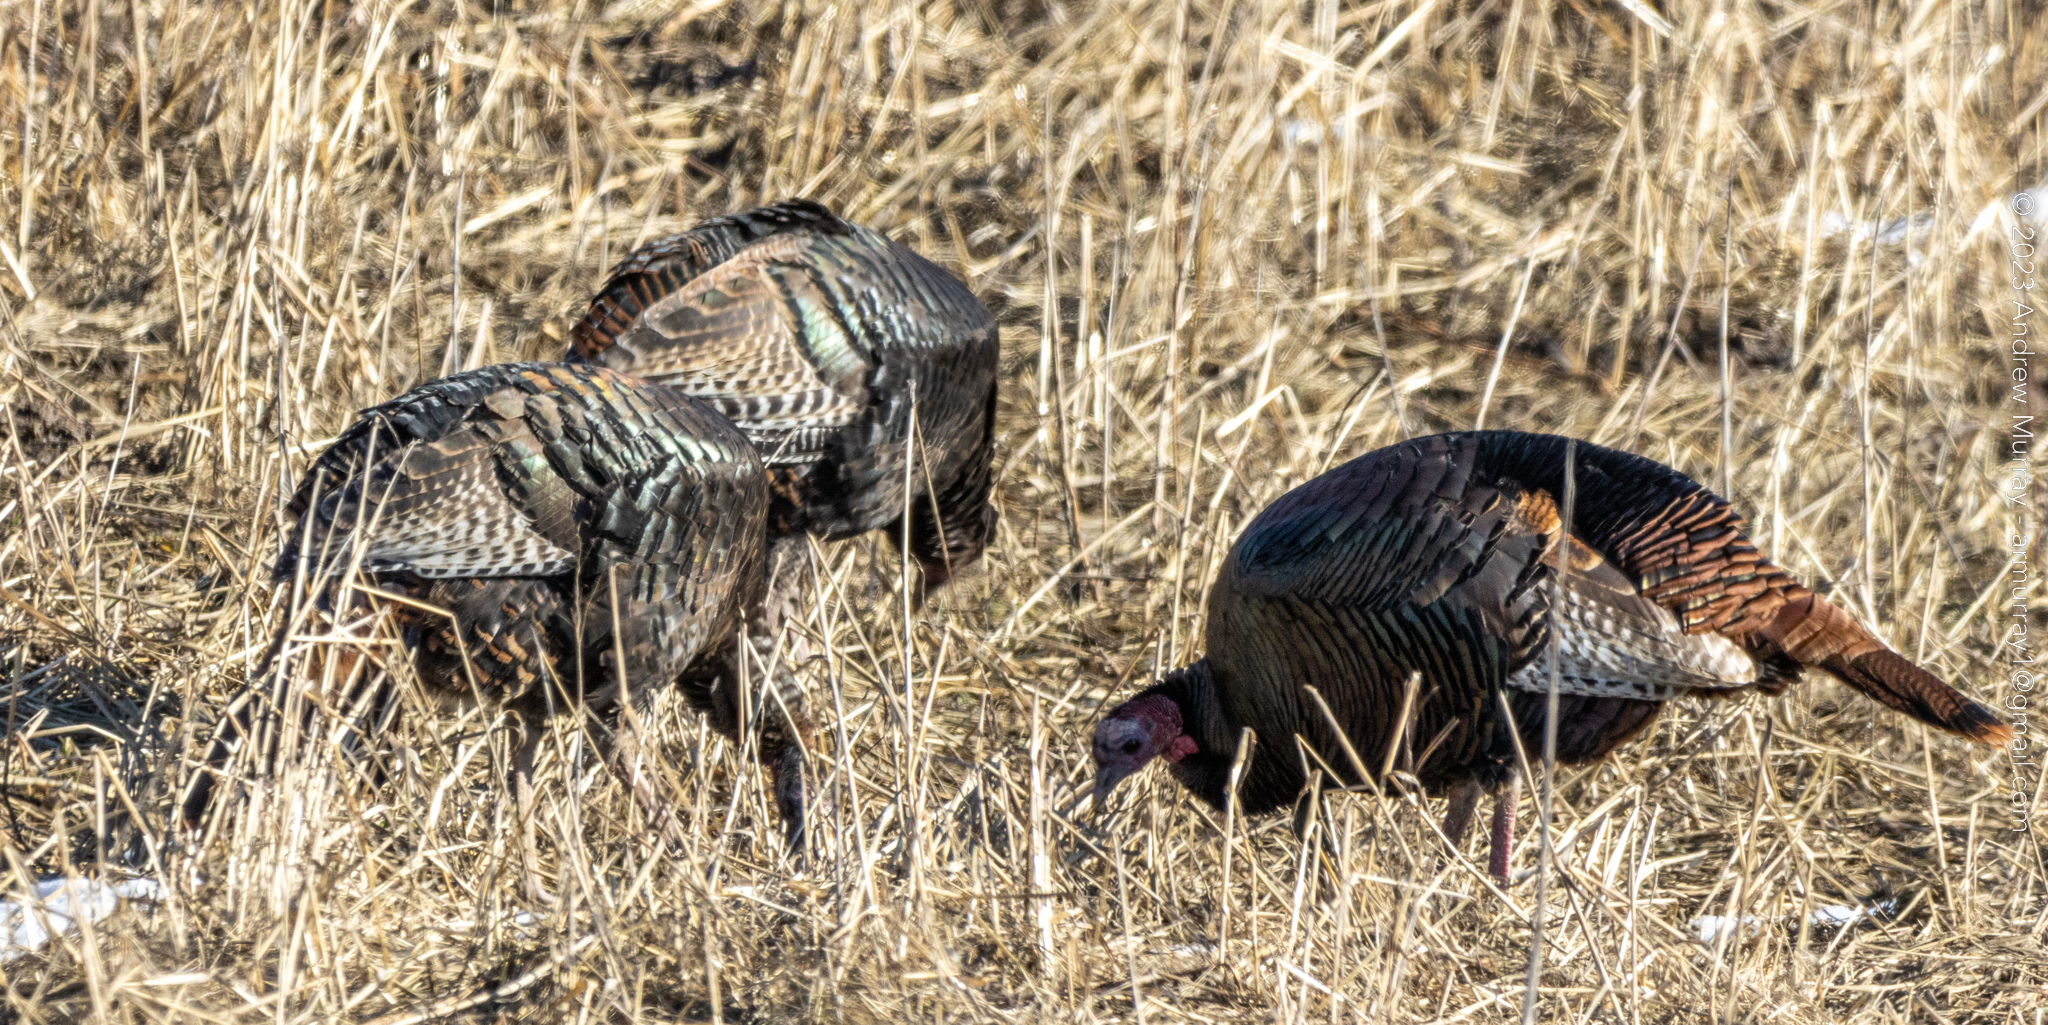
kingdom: Animalia
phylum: Chordata
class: Aves
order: Galliformes
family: Phasianidae
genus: Meleagris
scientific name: Meleagris gallopavo
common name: Wild turkey
